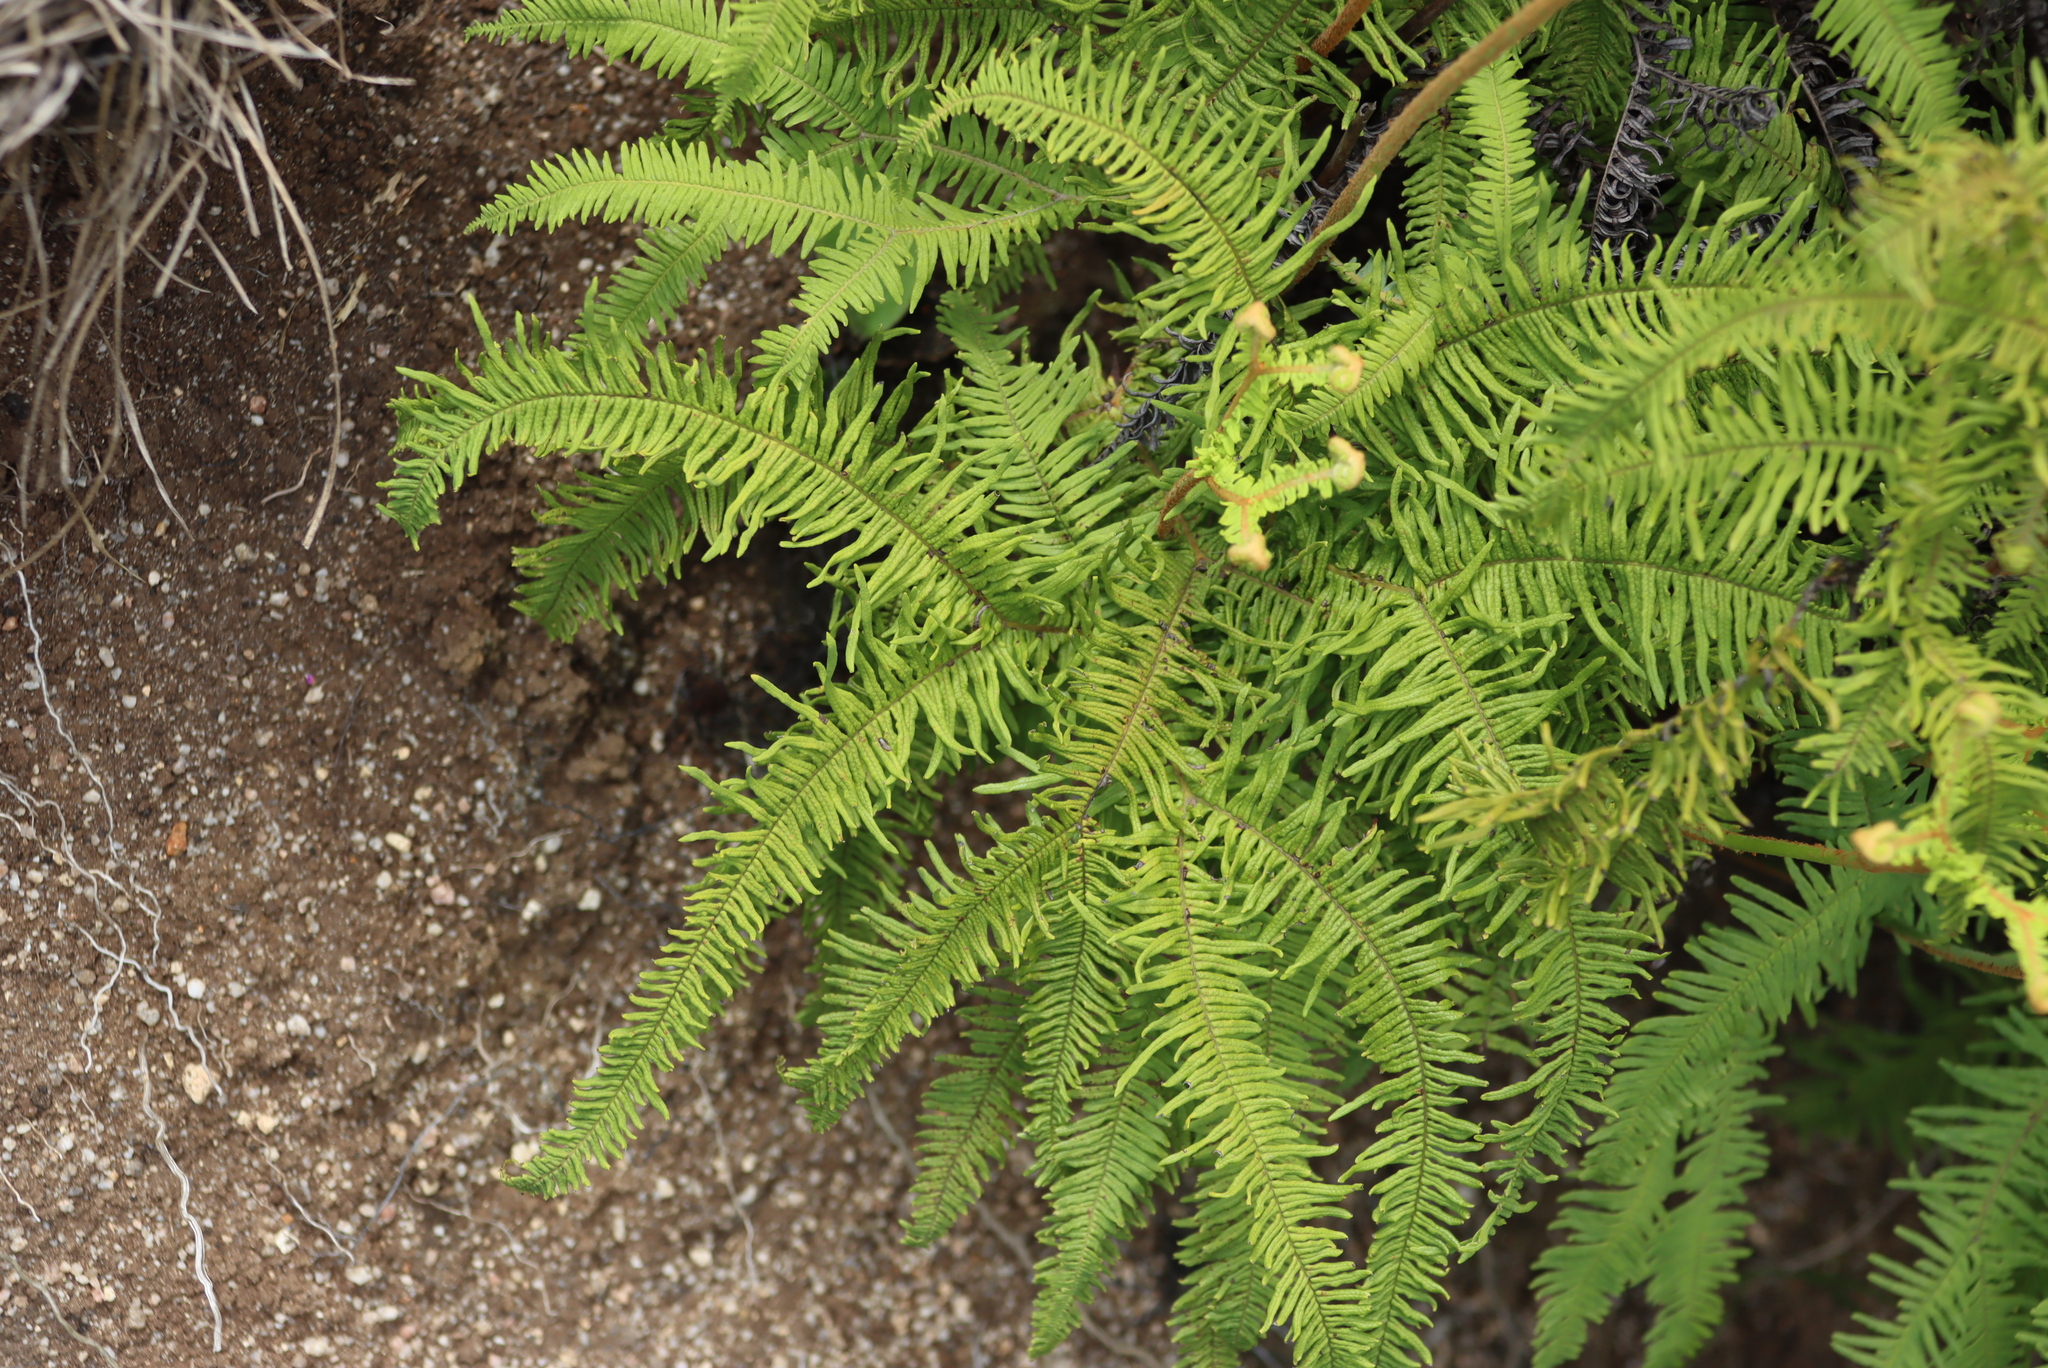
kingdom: Plantae
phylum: Tracheophyta
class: Polypodiopsida
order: Gleicheniales
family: Gleicheniaceae
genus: Sticherus
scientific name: Sticherus umbraculifer
